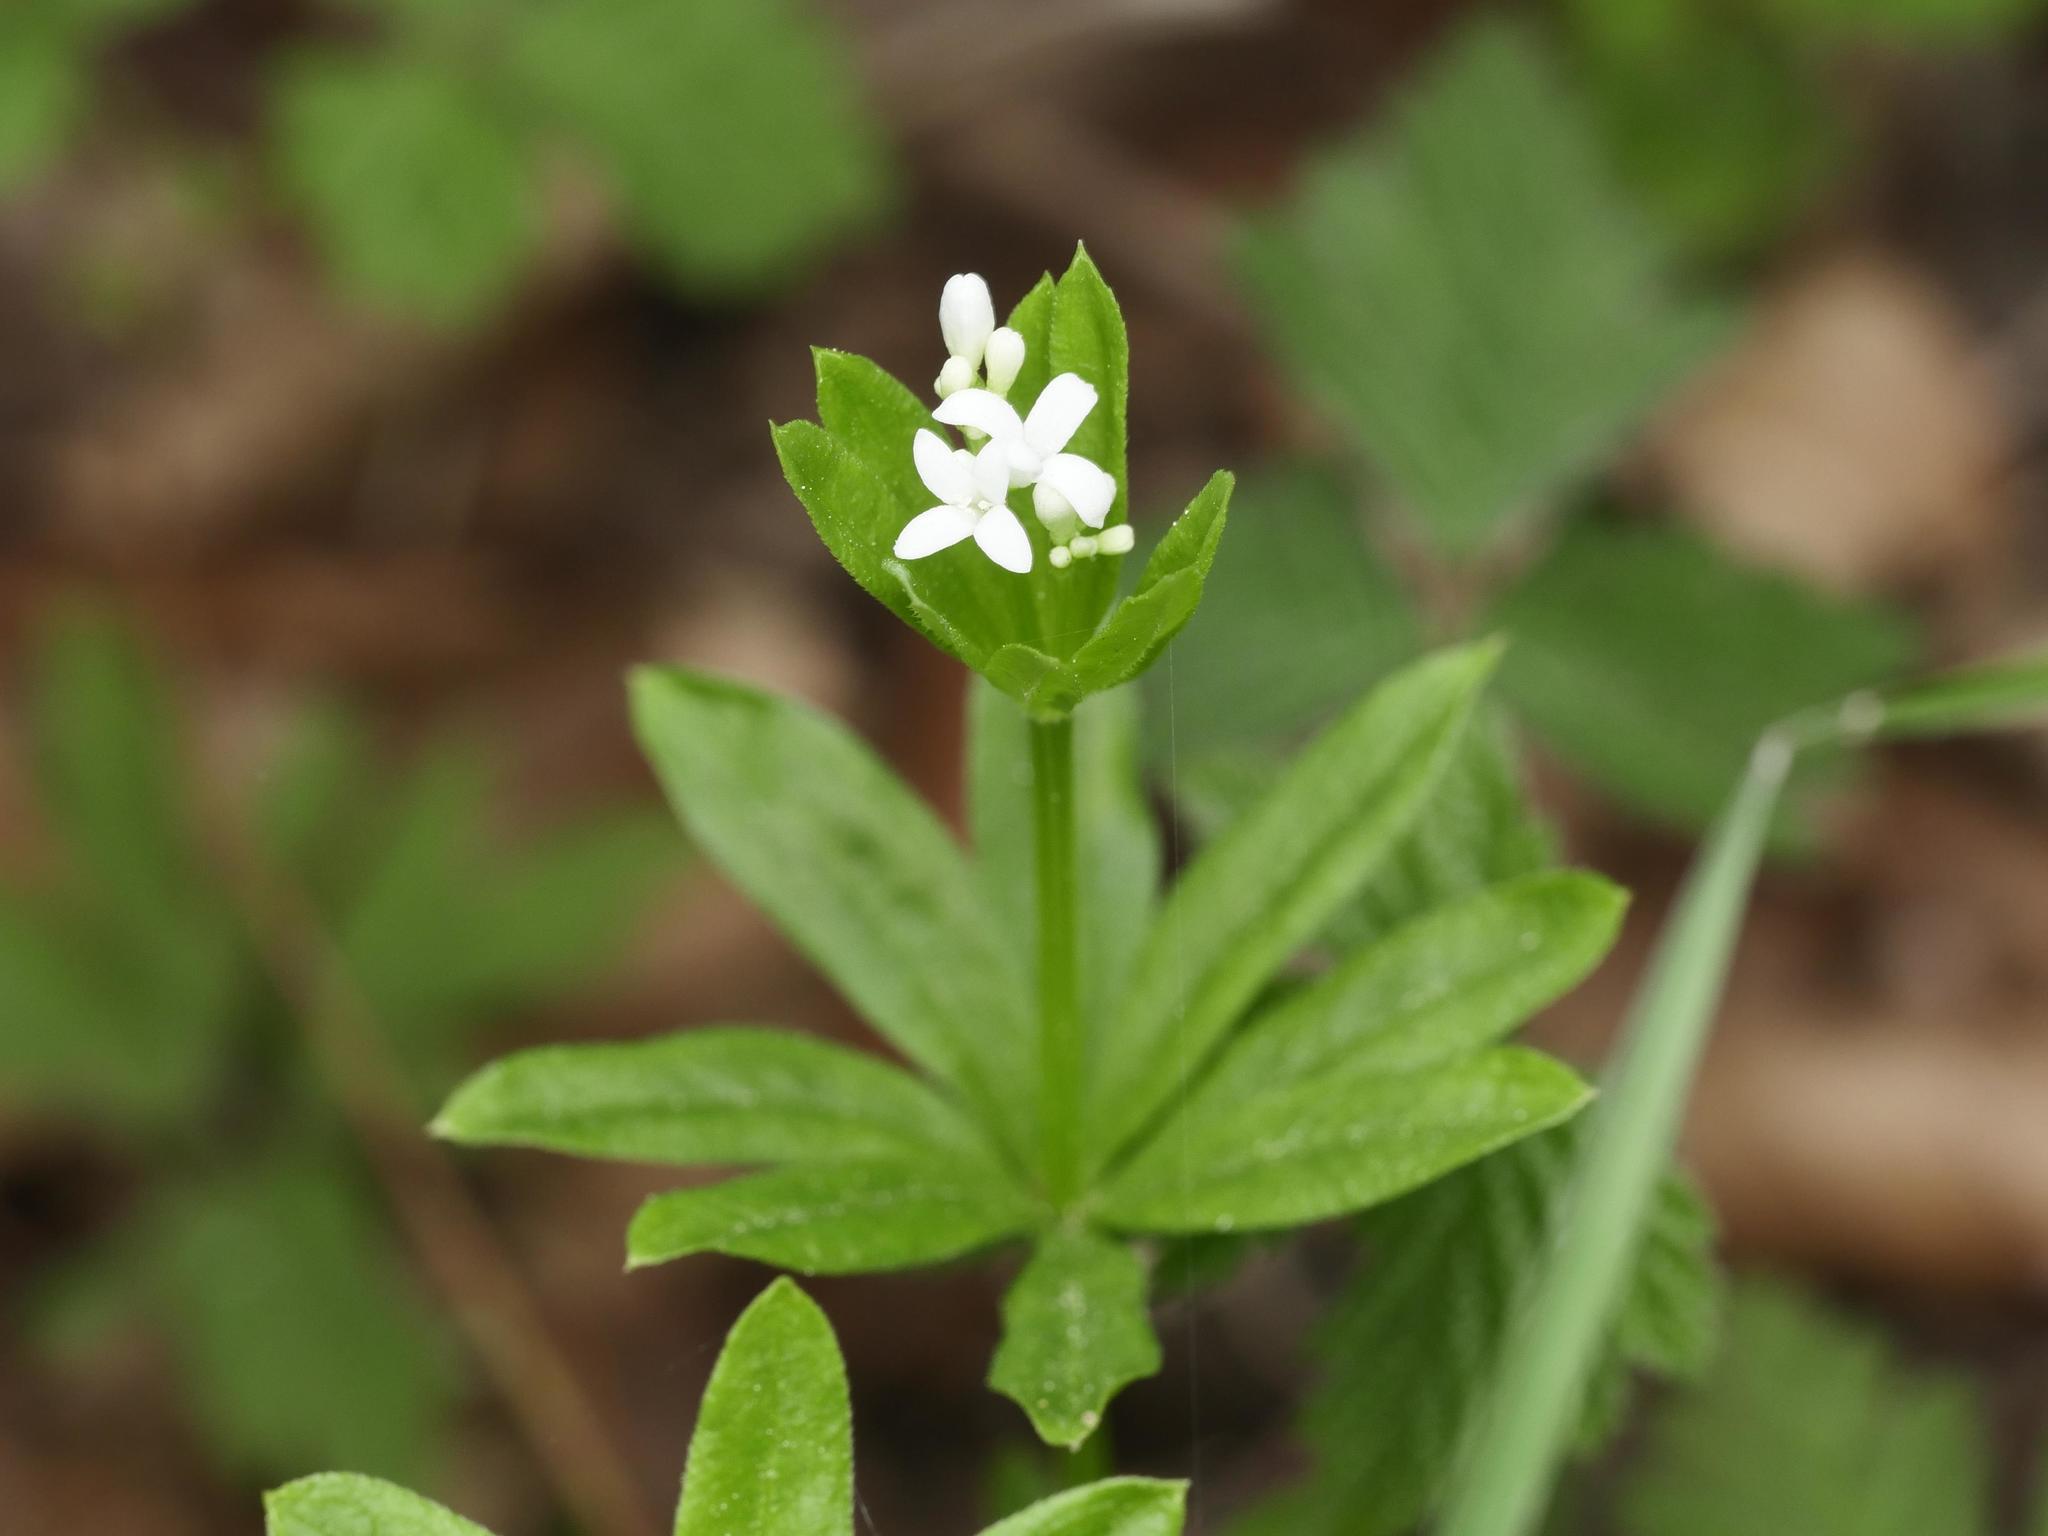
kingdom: Plantae
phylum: Tracheophyta
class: Magnoliopsida
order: Gentianales
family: Rubiaceae
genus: Galium
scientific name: Galium odoratum
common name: Sweet woodruff
